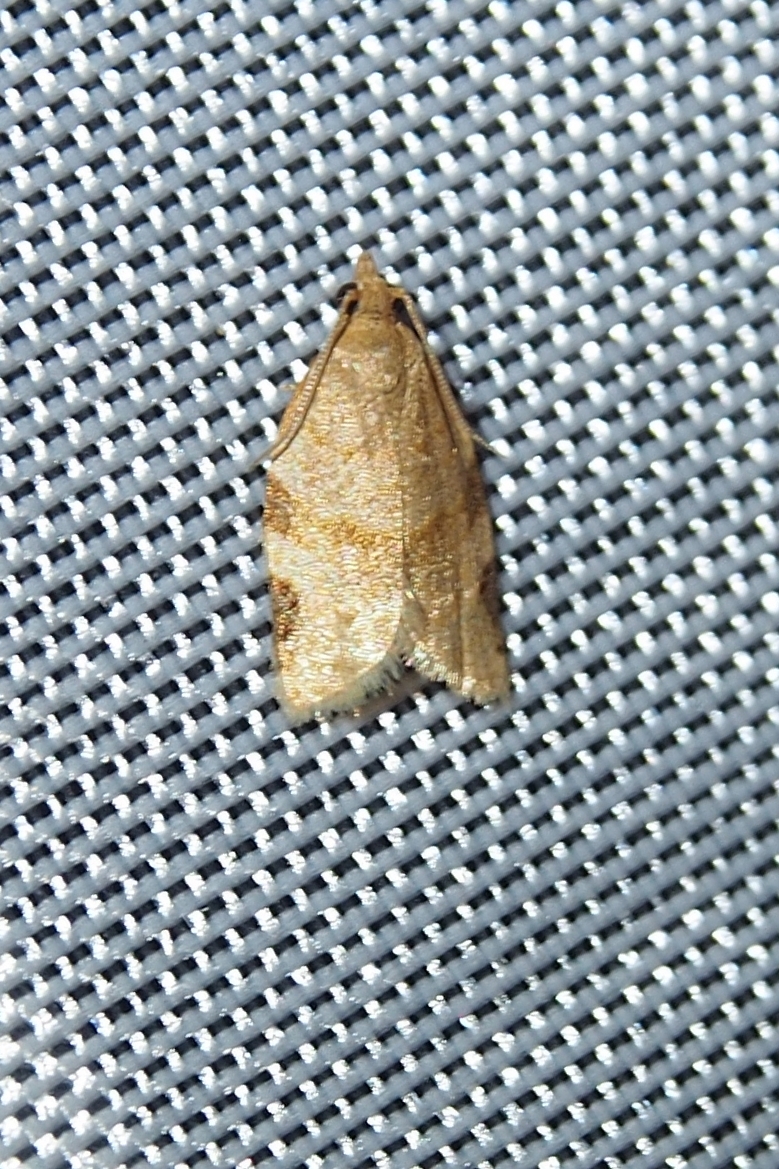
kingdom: Animalia
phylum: Arthropoda
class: Insecta
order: Lepidoptera
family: Tortricidae
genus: Clepsis
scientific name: Clepsis peritana
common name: Garden tortrix
